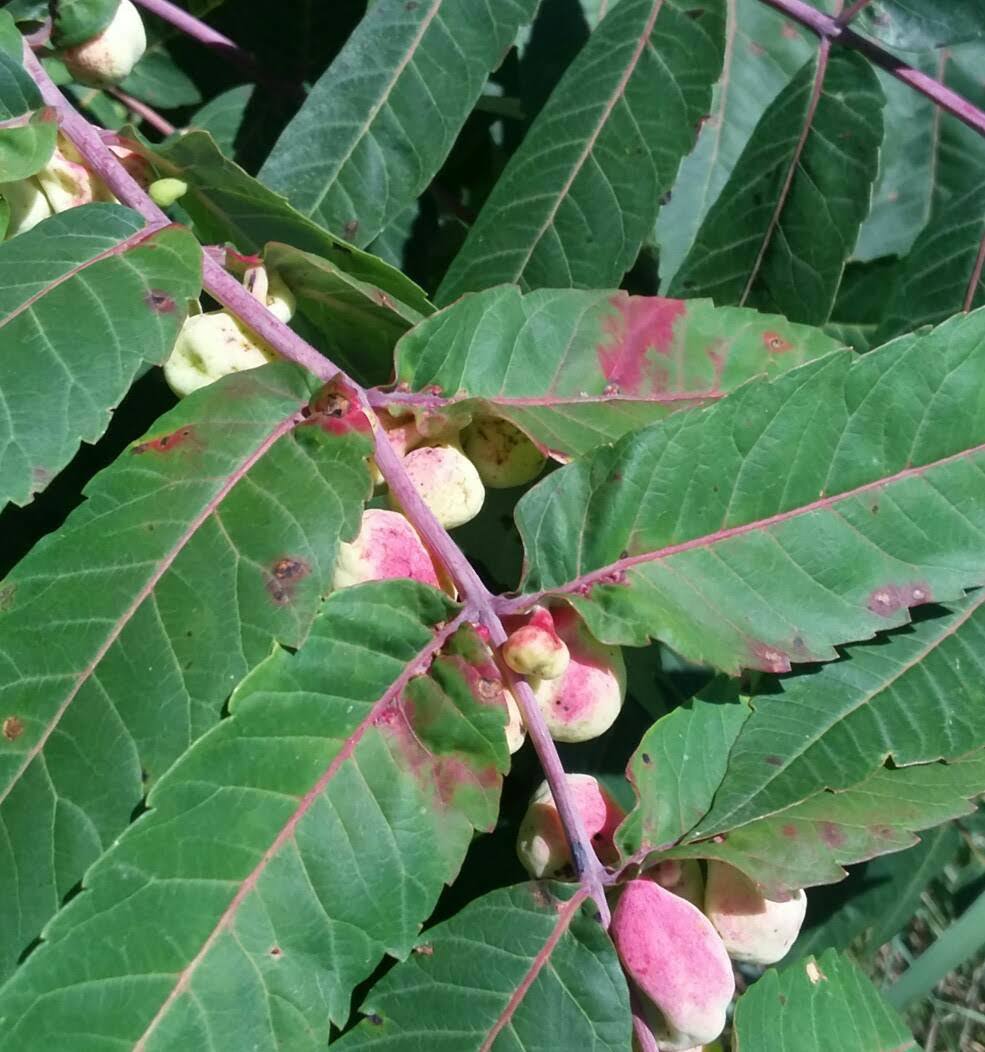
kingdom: Animalia
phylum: Arthropoda
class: Insecta
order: Hemiptera
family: Aphididae
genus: Melaphis
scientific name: Melaphis rhois
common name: Sumac gall aphid
